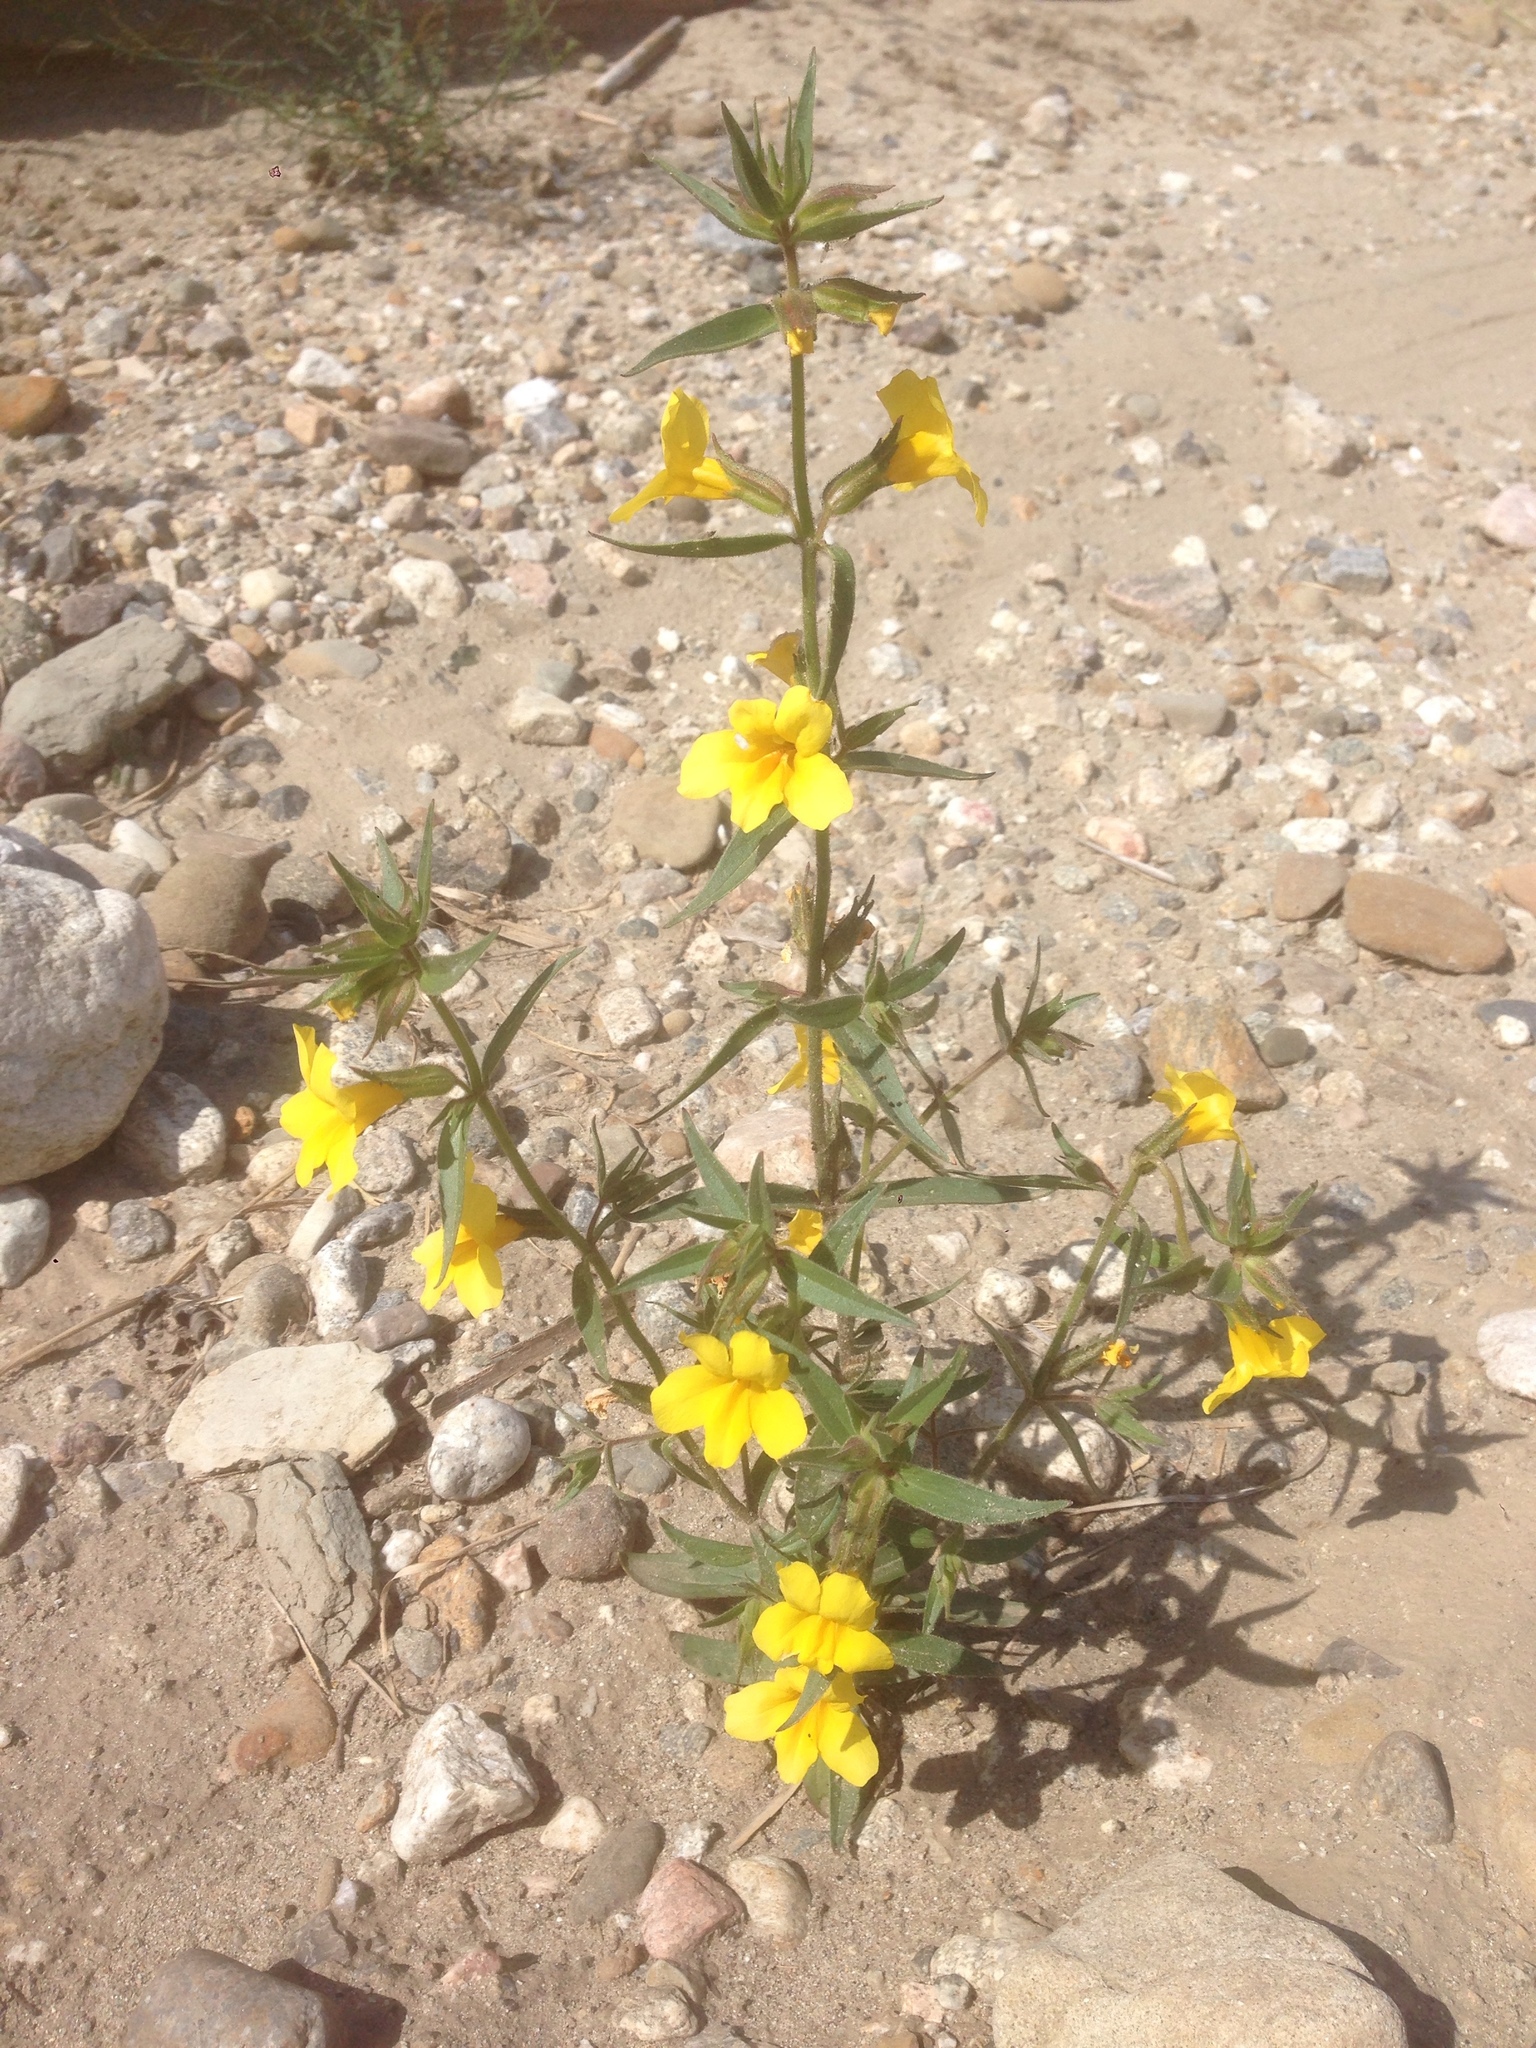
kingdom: Plantae
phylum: Tracheophyta
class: Magnoliopsida
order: Lamiales
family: Phrymaceae
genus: Diplacus
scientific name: Diplacus brevipes
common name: Wide-throat yellow monkey-flower
